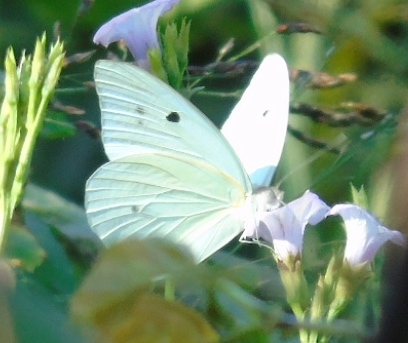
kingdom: Animalia
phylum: Arthropoda
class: Insecta
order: Lepidoptera
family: Pieridae
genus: Ganyra
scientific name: Ganyra josephina
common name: Giant white
